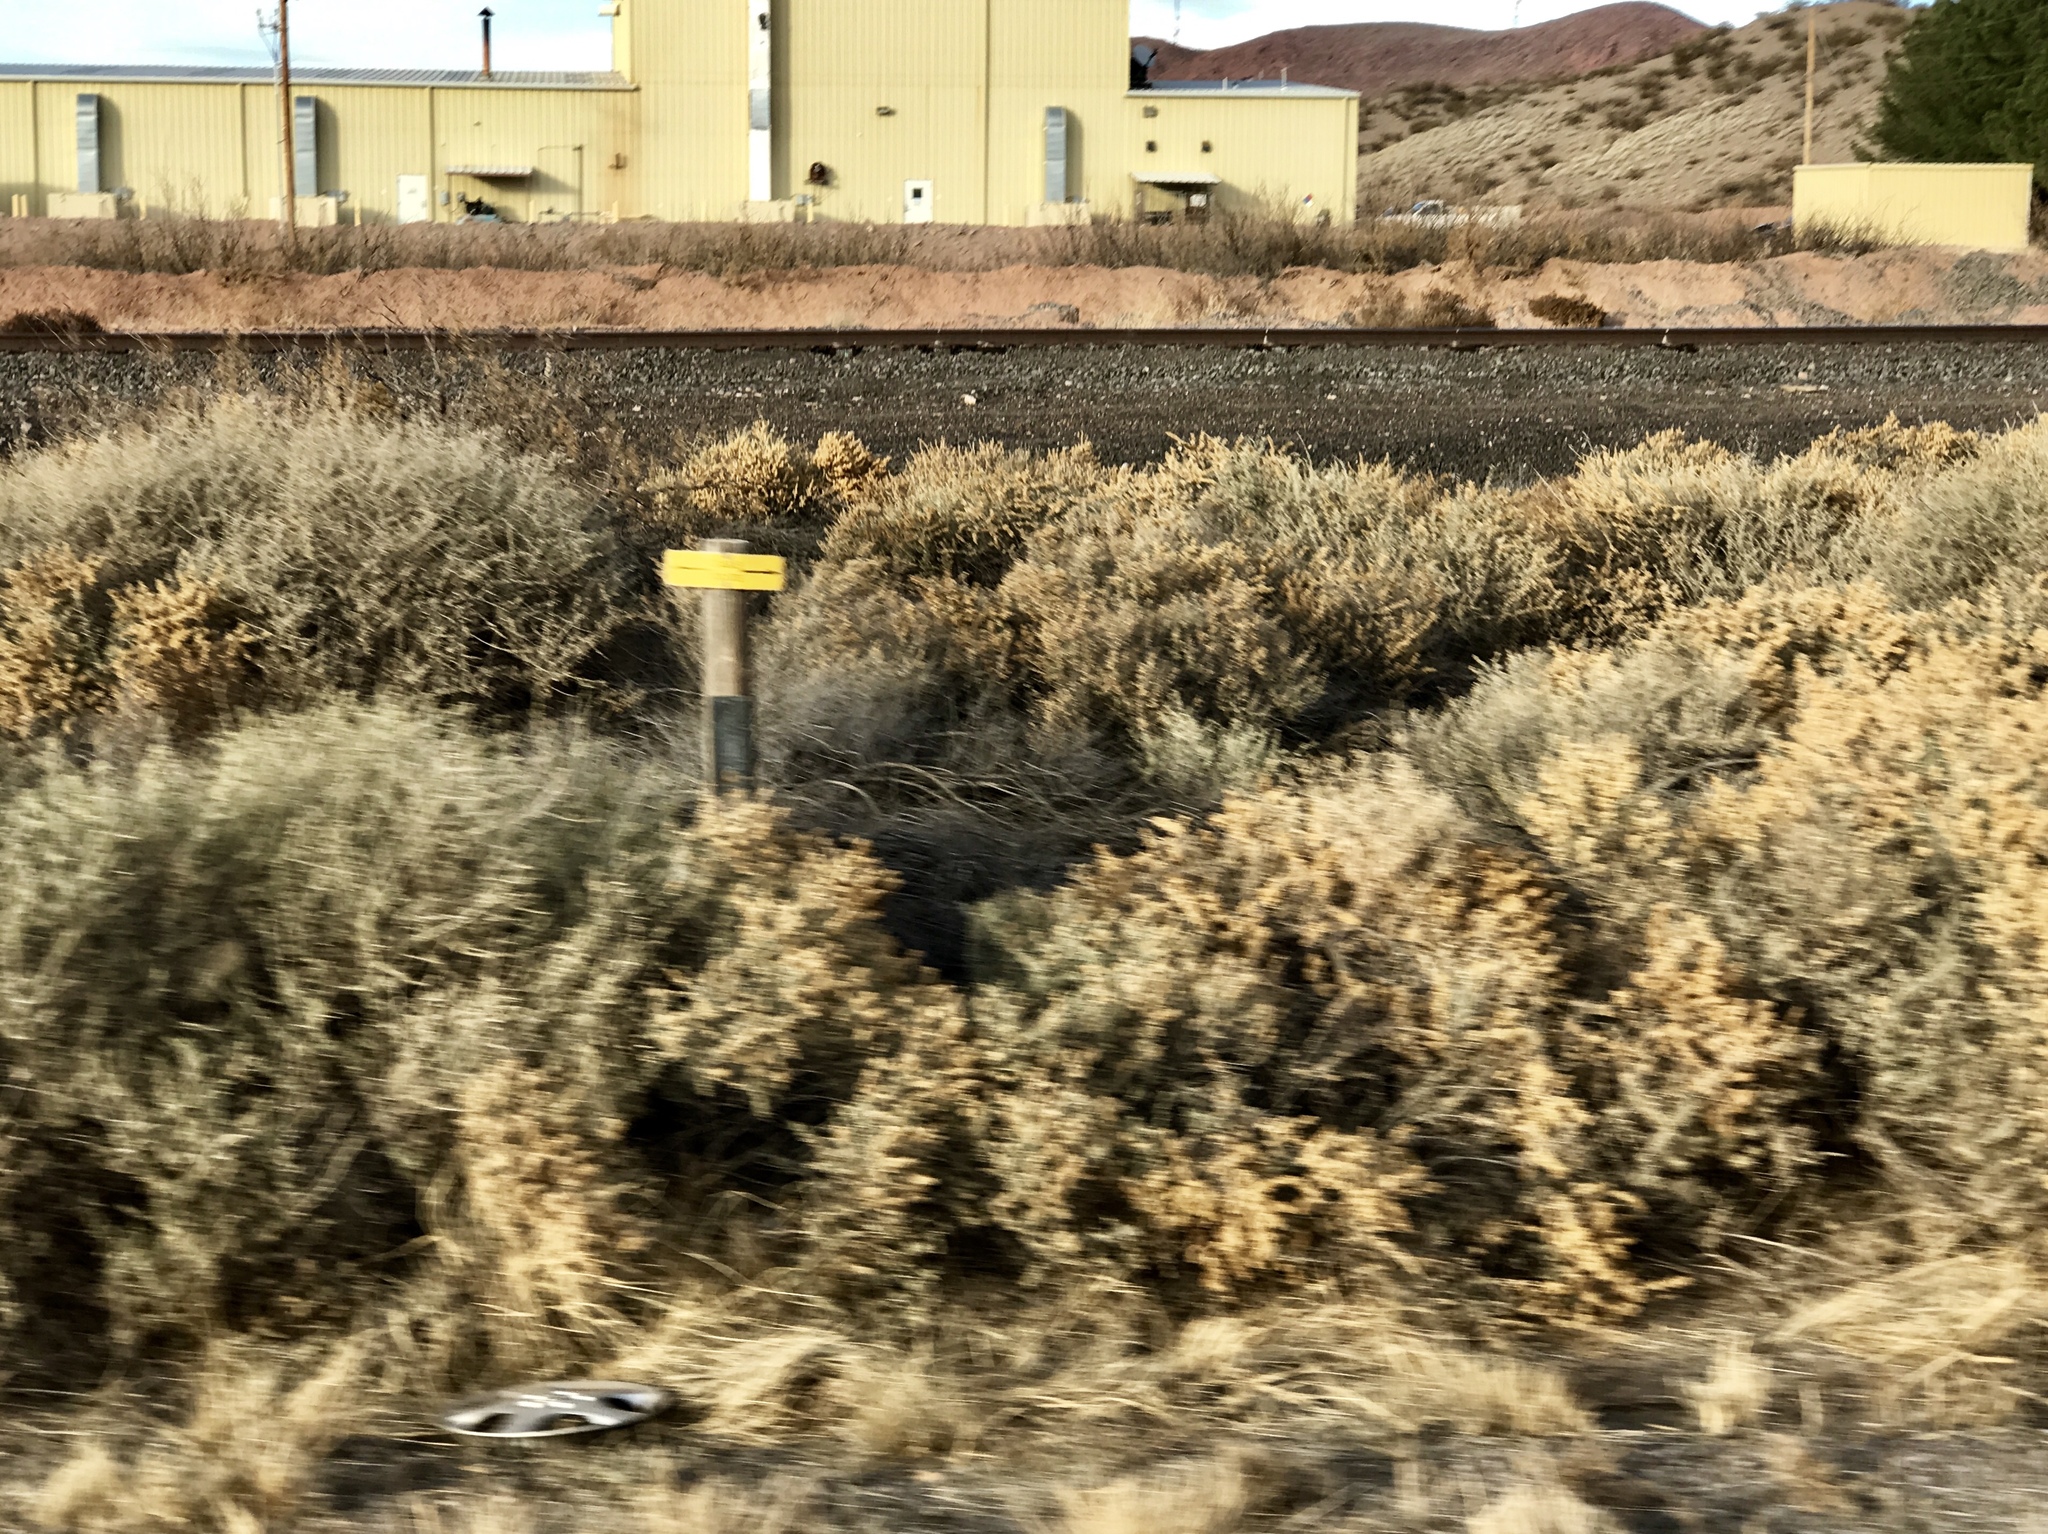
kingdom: Plantae
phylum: Tracheophyta
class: Magnoliopsida
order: Caryophyllales
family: Amaranthaceae
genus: Atriplex
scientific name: Atriplex canescens
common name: Four-wing saltbush
